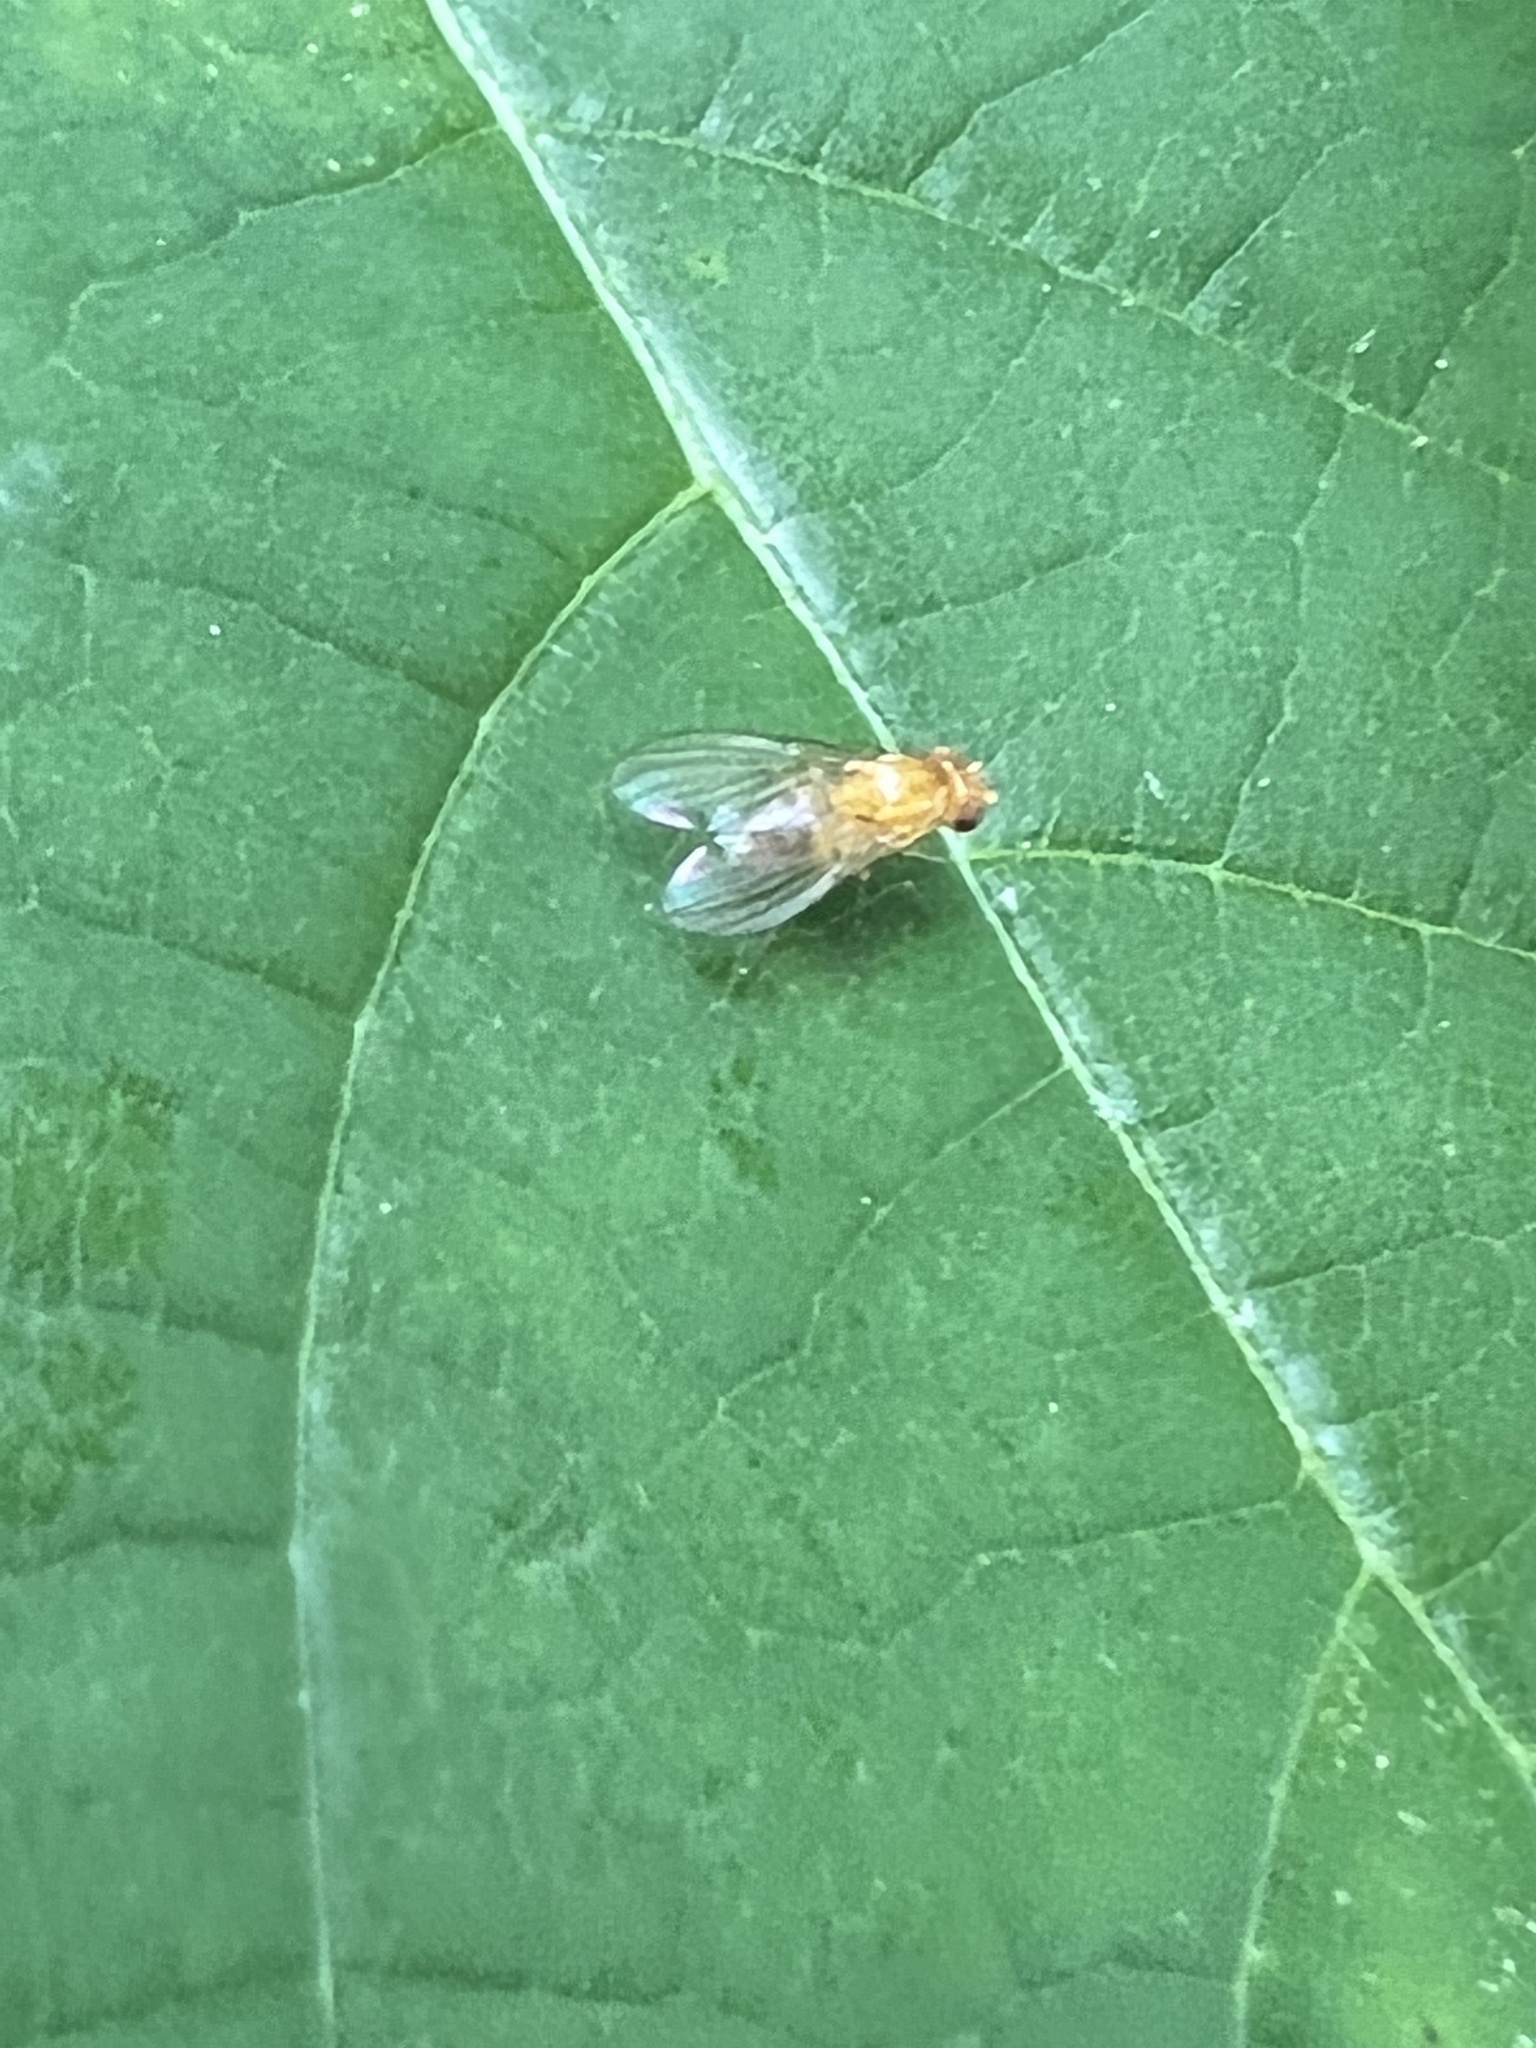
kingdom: Animalia
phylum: Arthropoda
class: Insecta
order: Diptera
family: Lauxaniidae
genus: Neogriphoneura
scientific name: Neogriphoneura sordida
